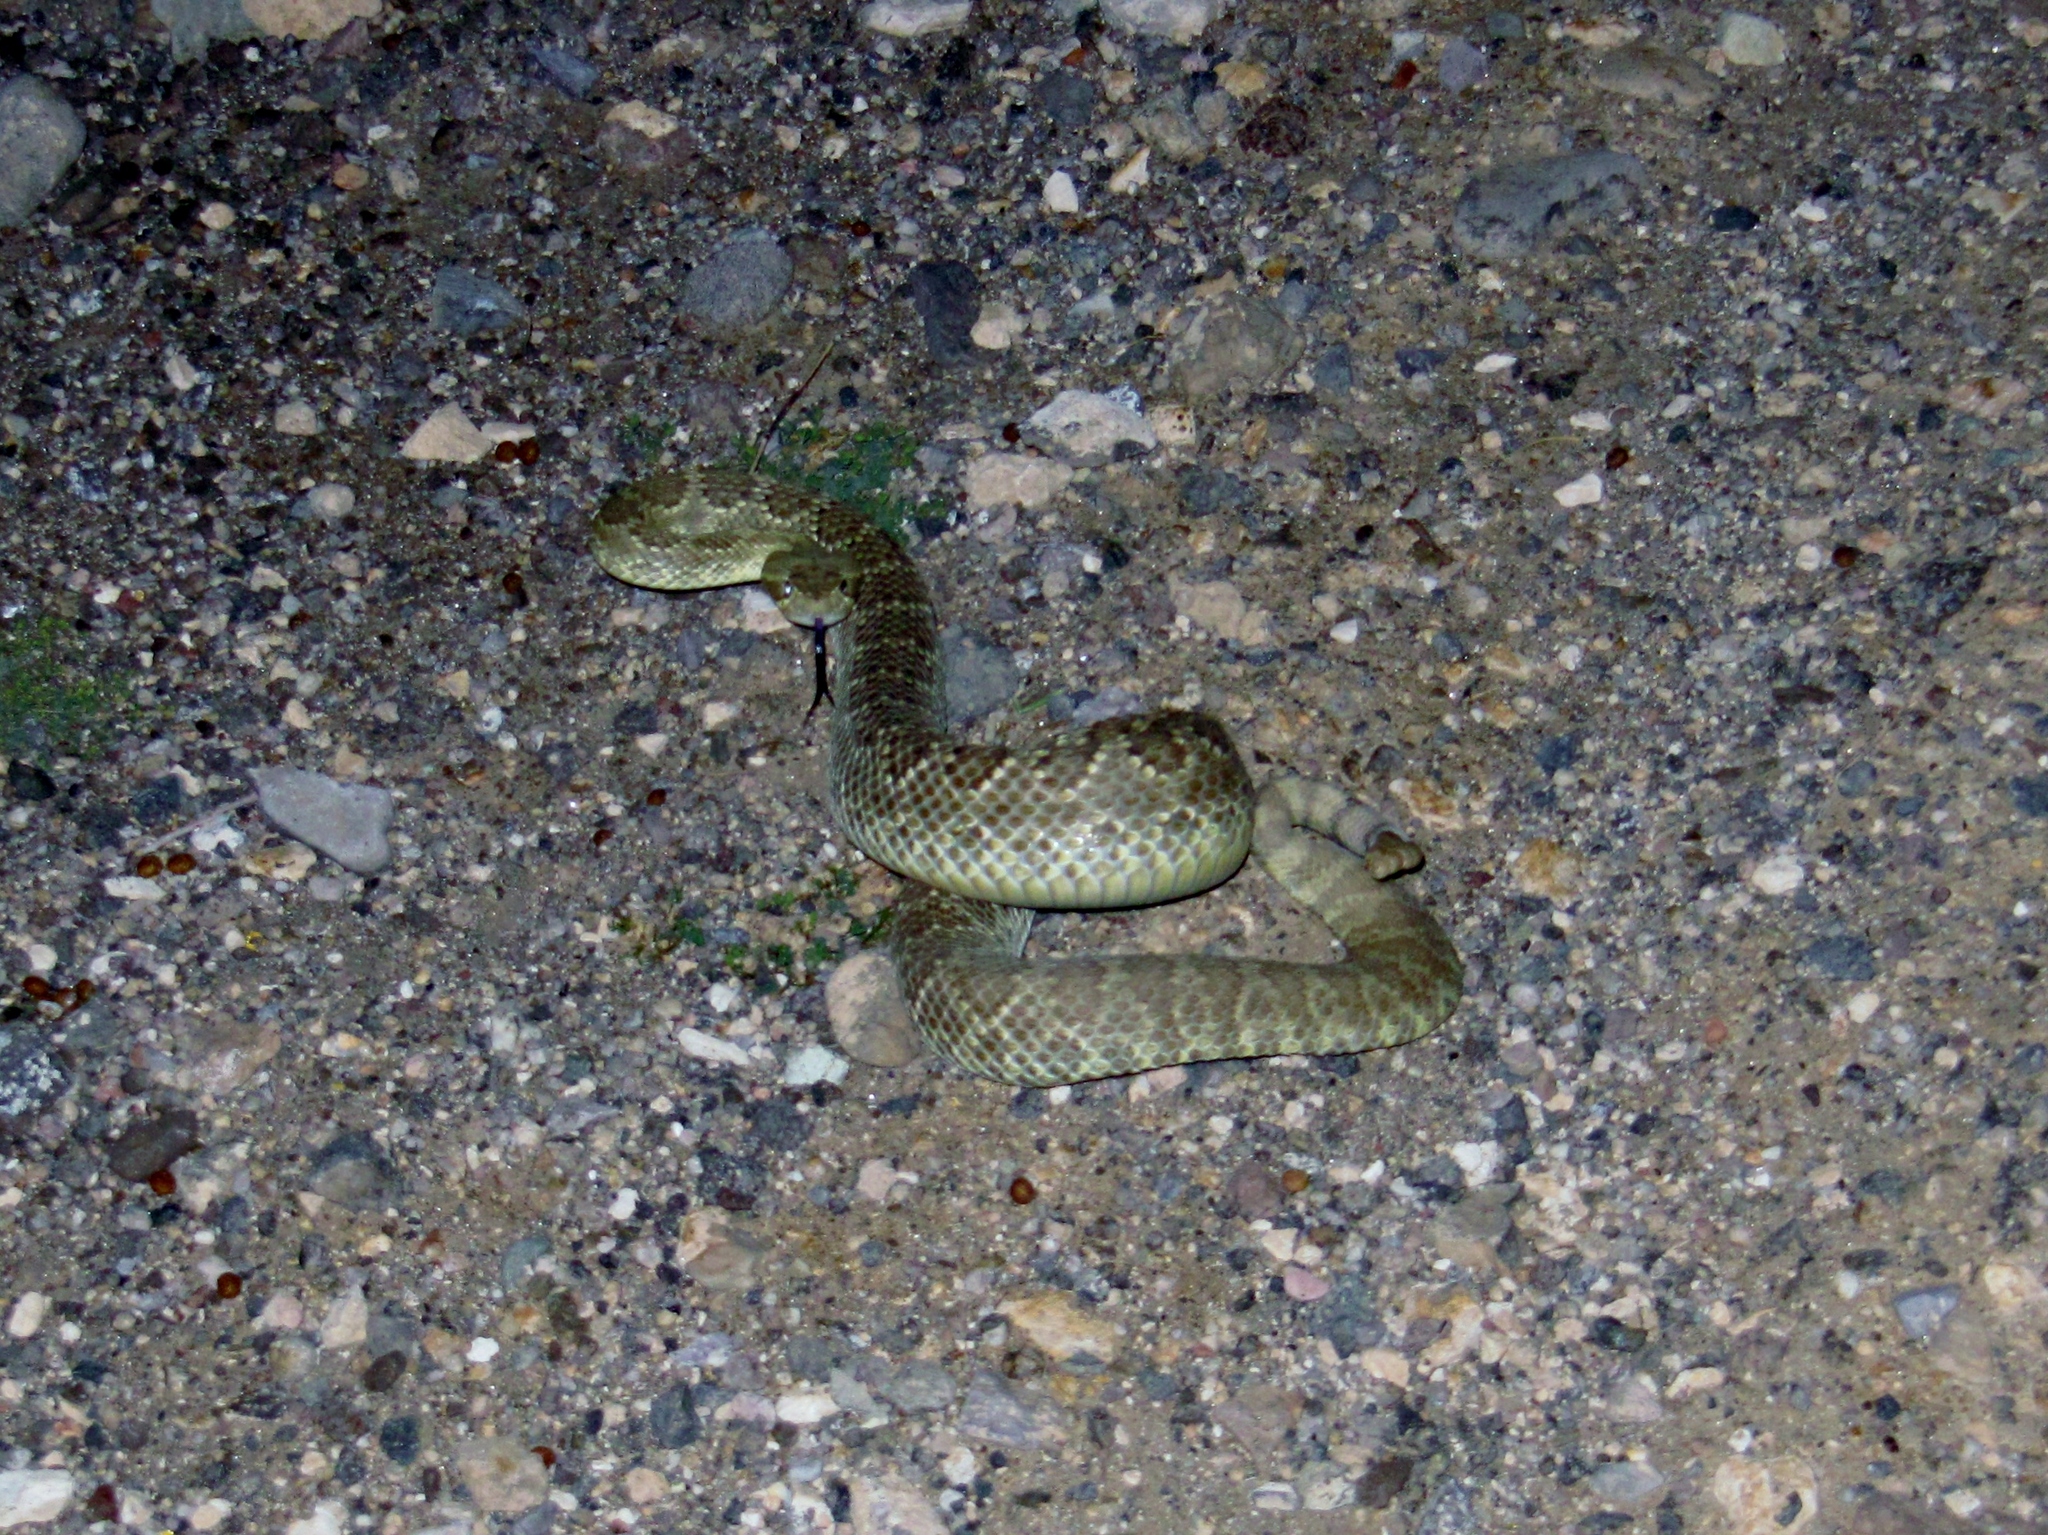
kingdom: Animalia
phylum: Chordata
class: Squamata
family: Viperidae
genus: Crotalus
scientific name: Crotalus scutulatus
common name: Scutulatus
